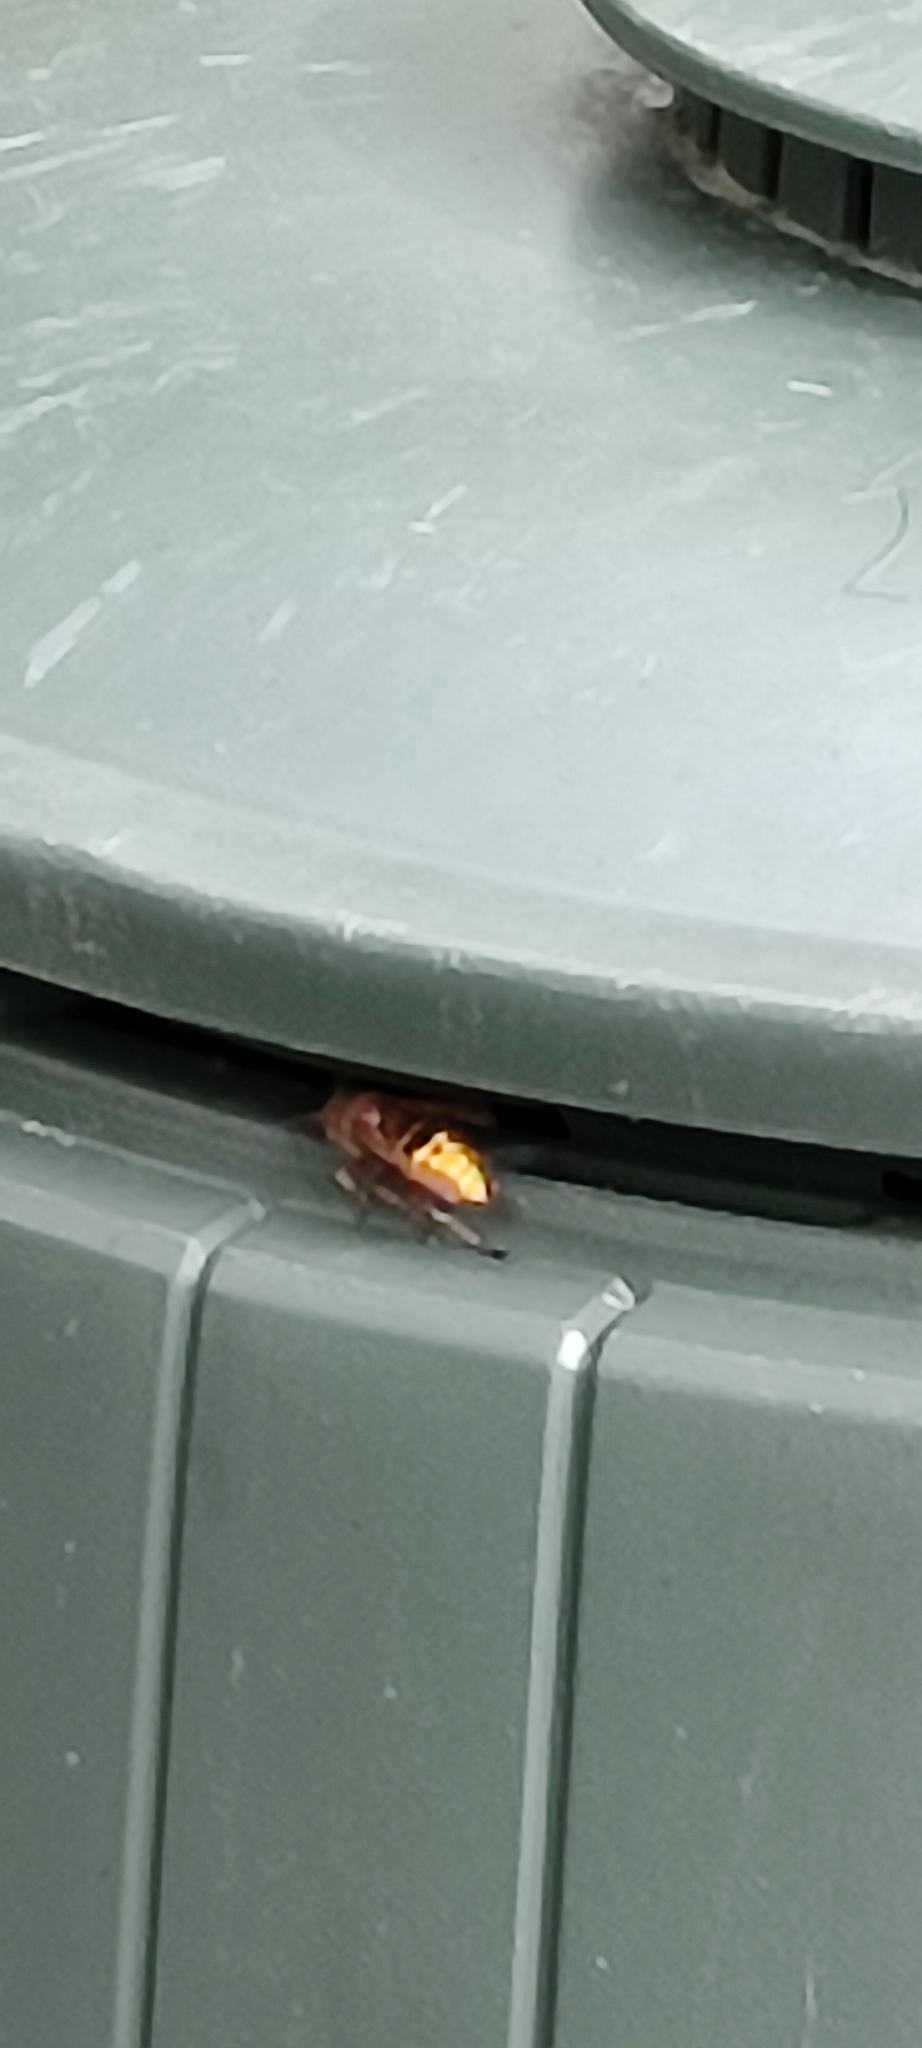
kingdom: Animalia
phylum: Arthropoda
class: Insecta
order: Hymenoptera
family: Vespidae
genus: Vespa
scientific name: Vespa crabro
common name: Hornet
